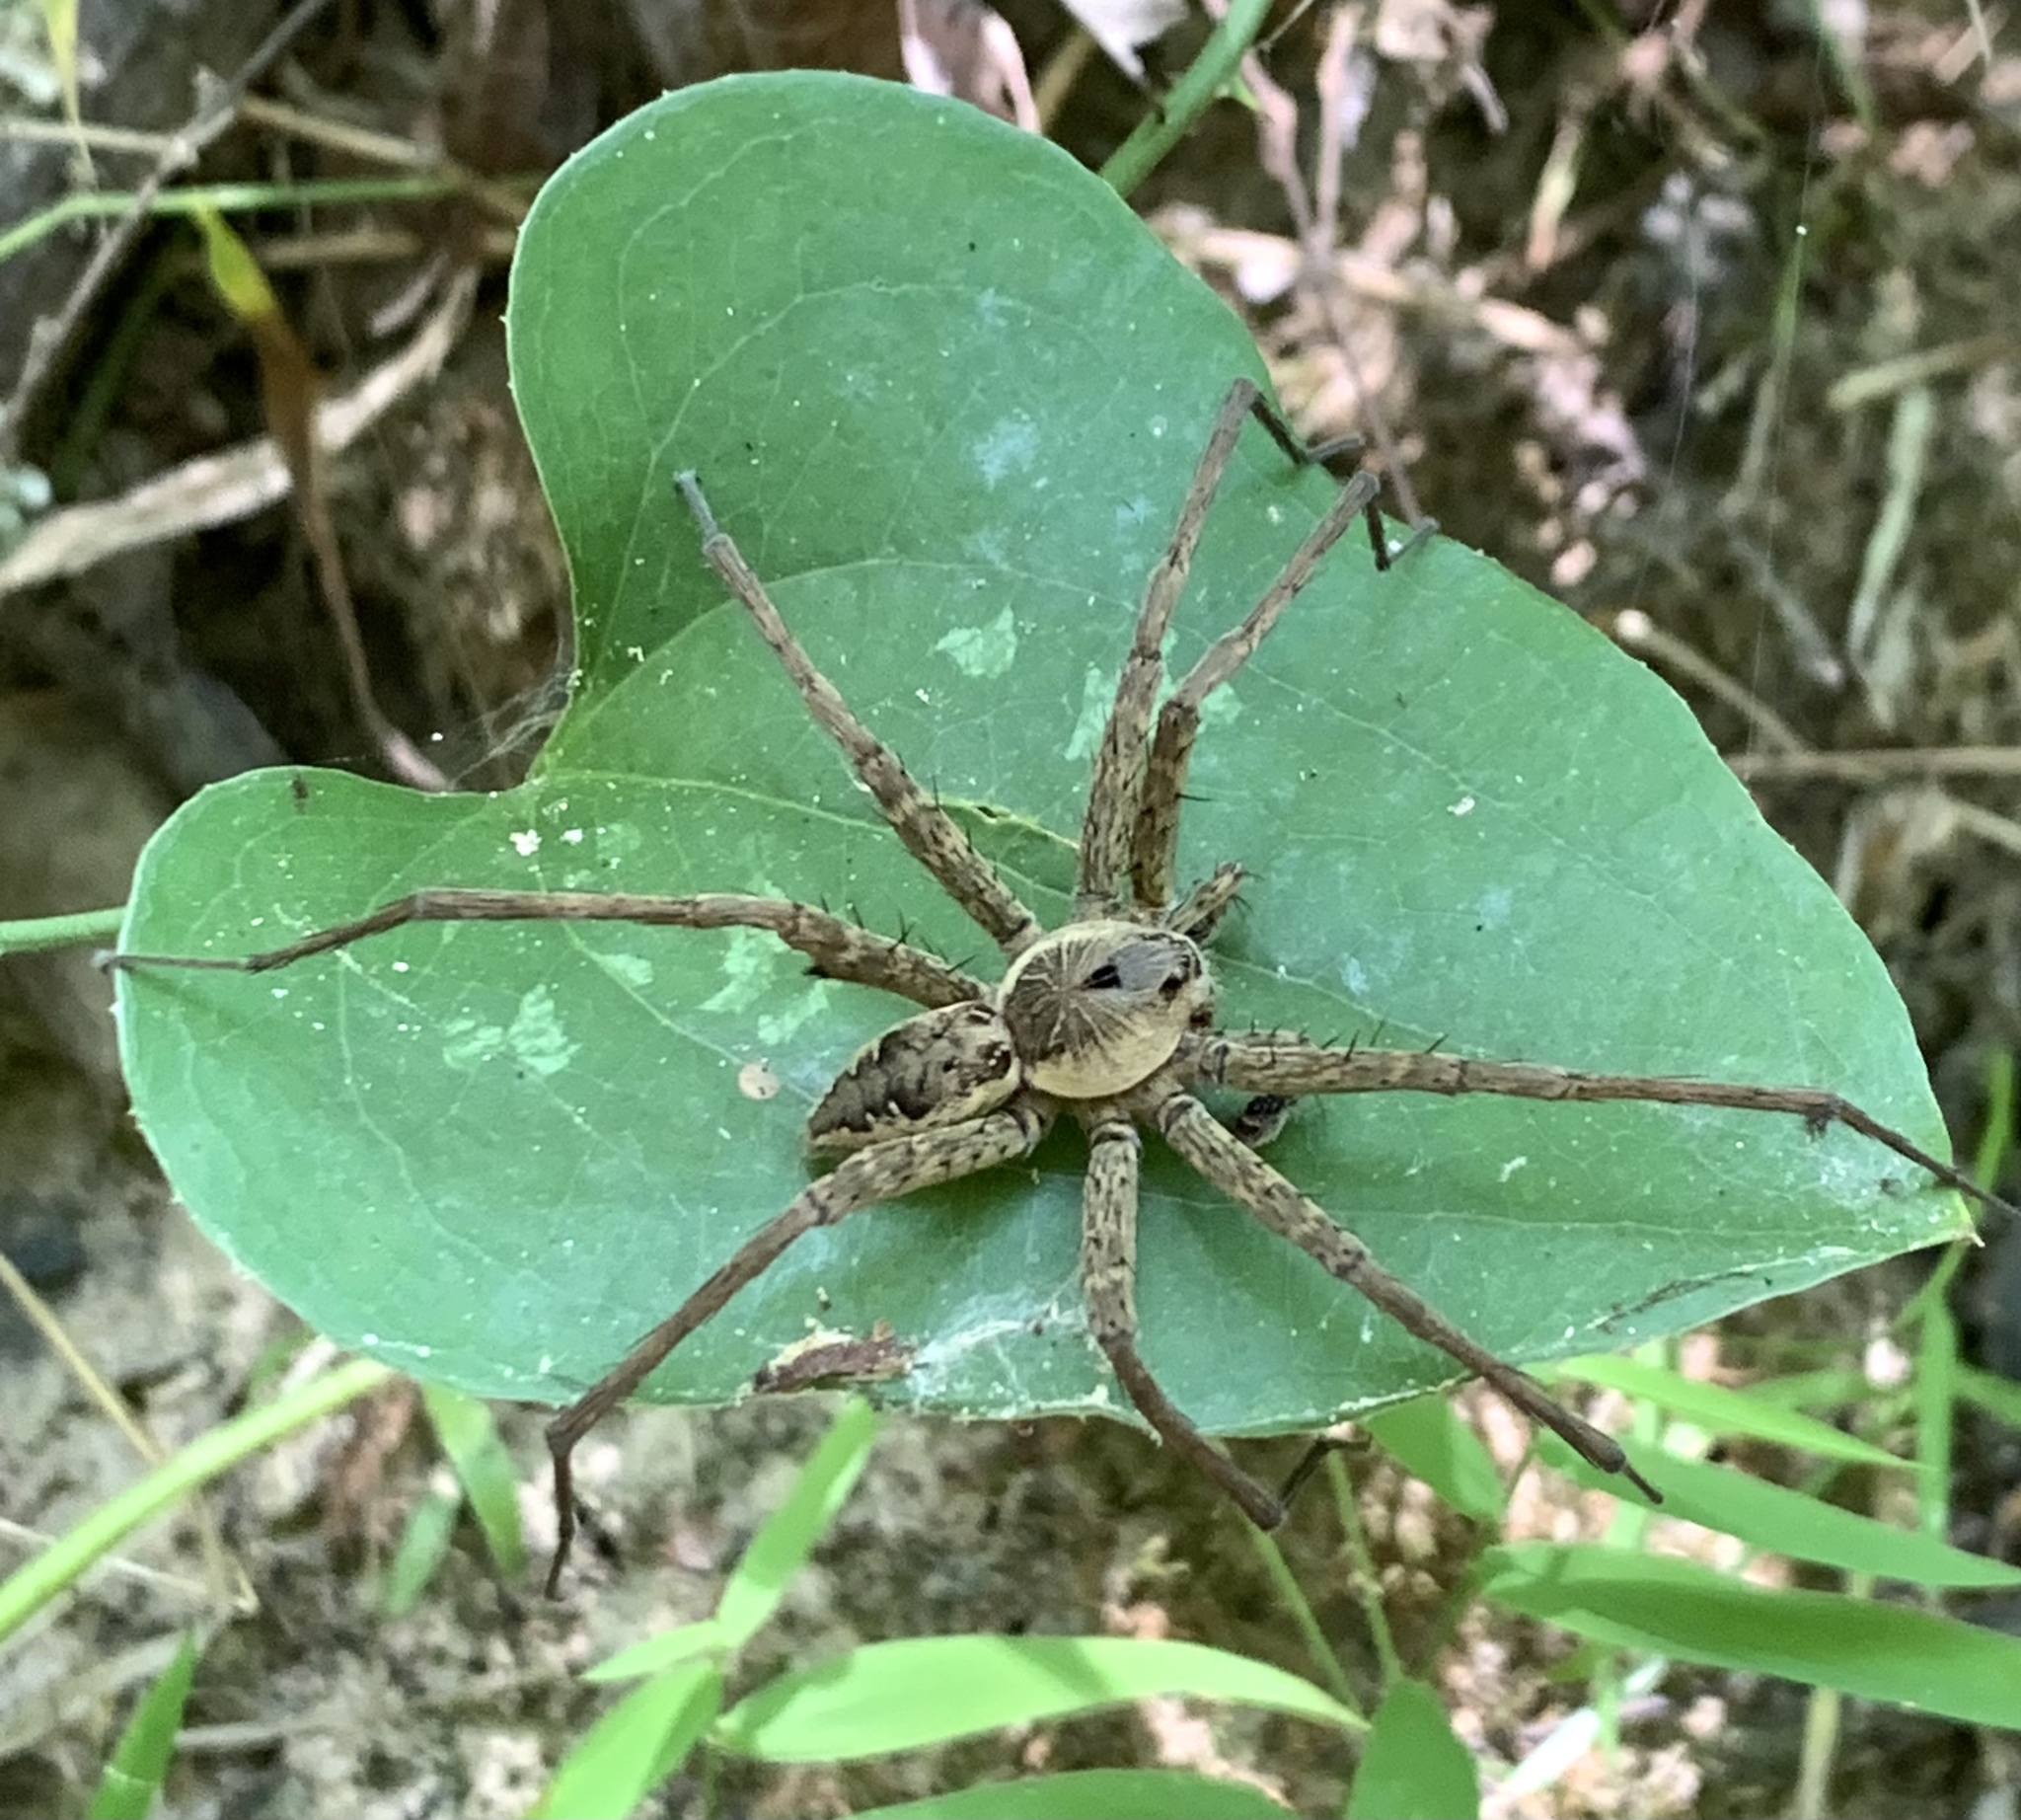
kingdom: Animalia
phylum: Arthropoda
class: Arachnida
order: Araneae
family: Pisauridae
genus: Dolomedes
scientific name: Dolomedes vittatus
